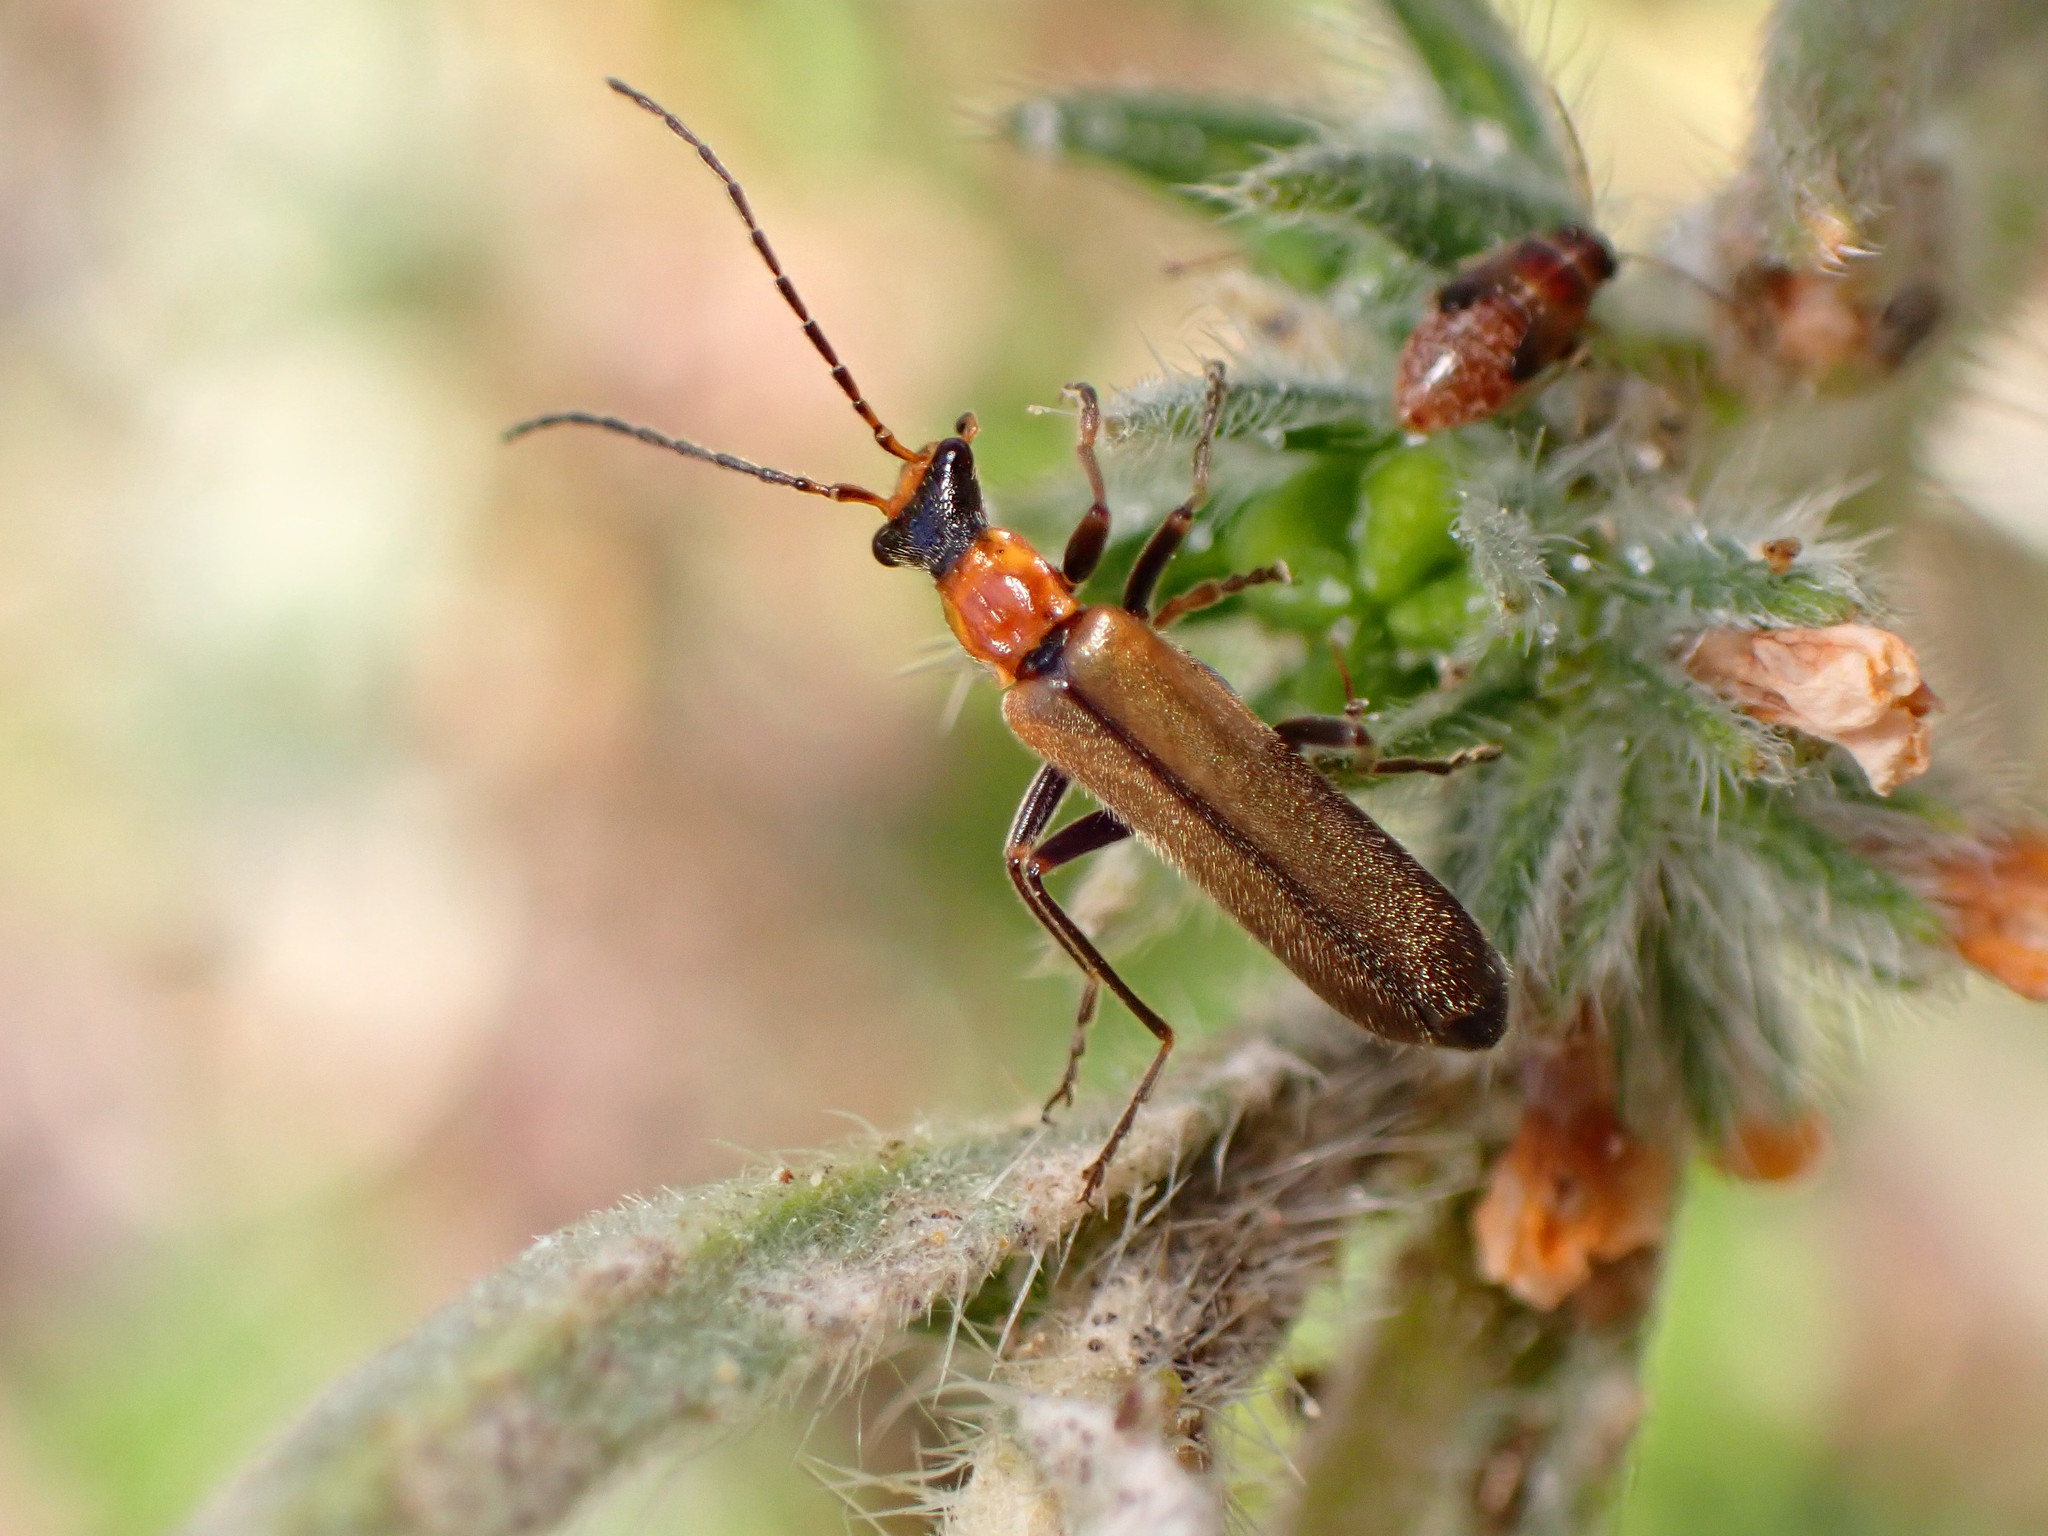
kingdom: Animalia
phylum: Arthropoda
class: Insecta
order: Coleoptera
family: Cantharidae
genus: Podabrus
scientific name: Podabrus californicus
